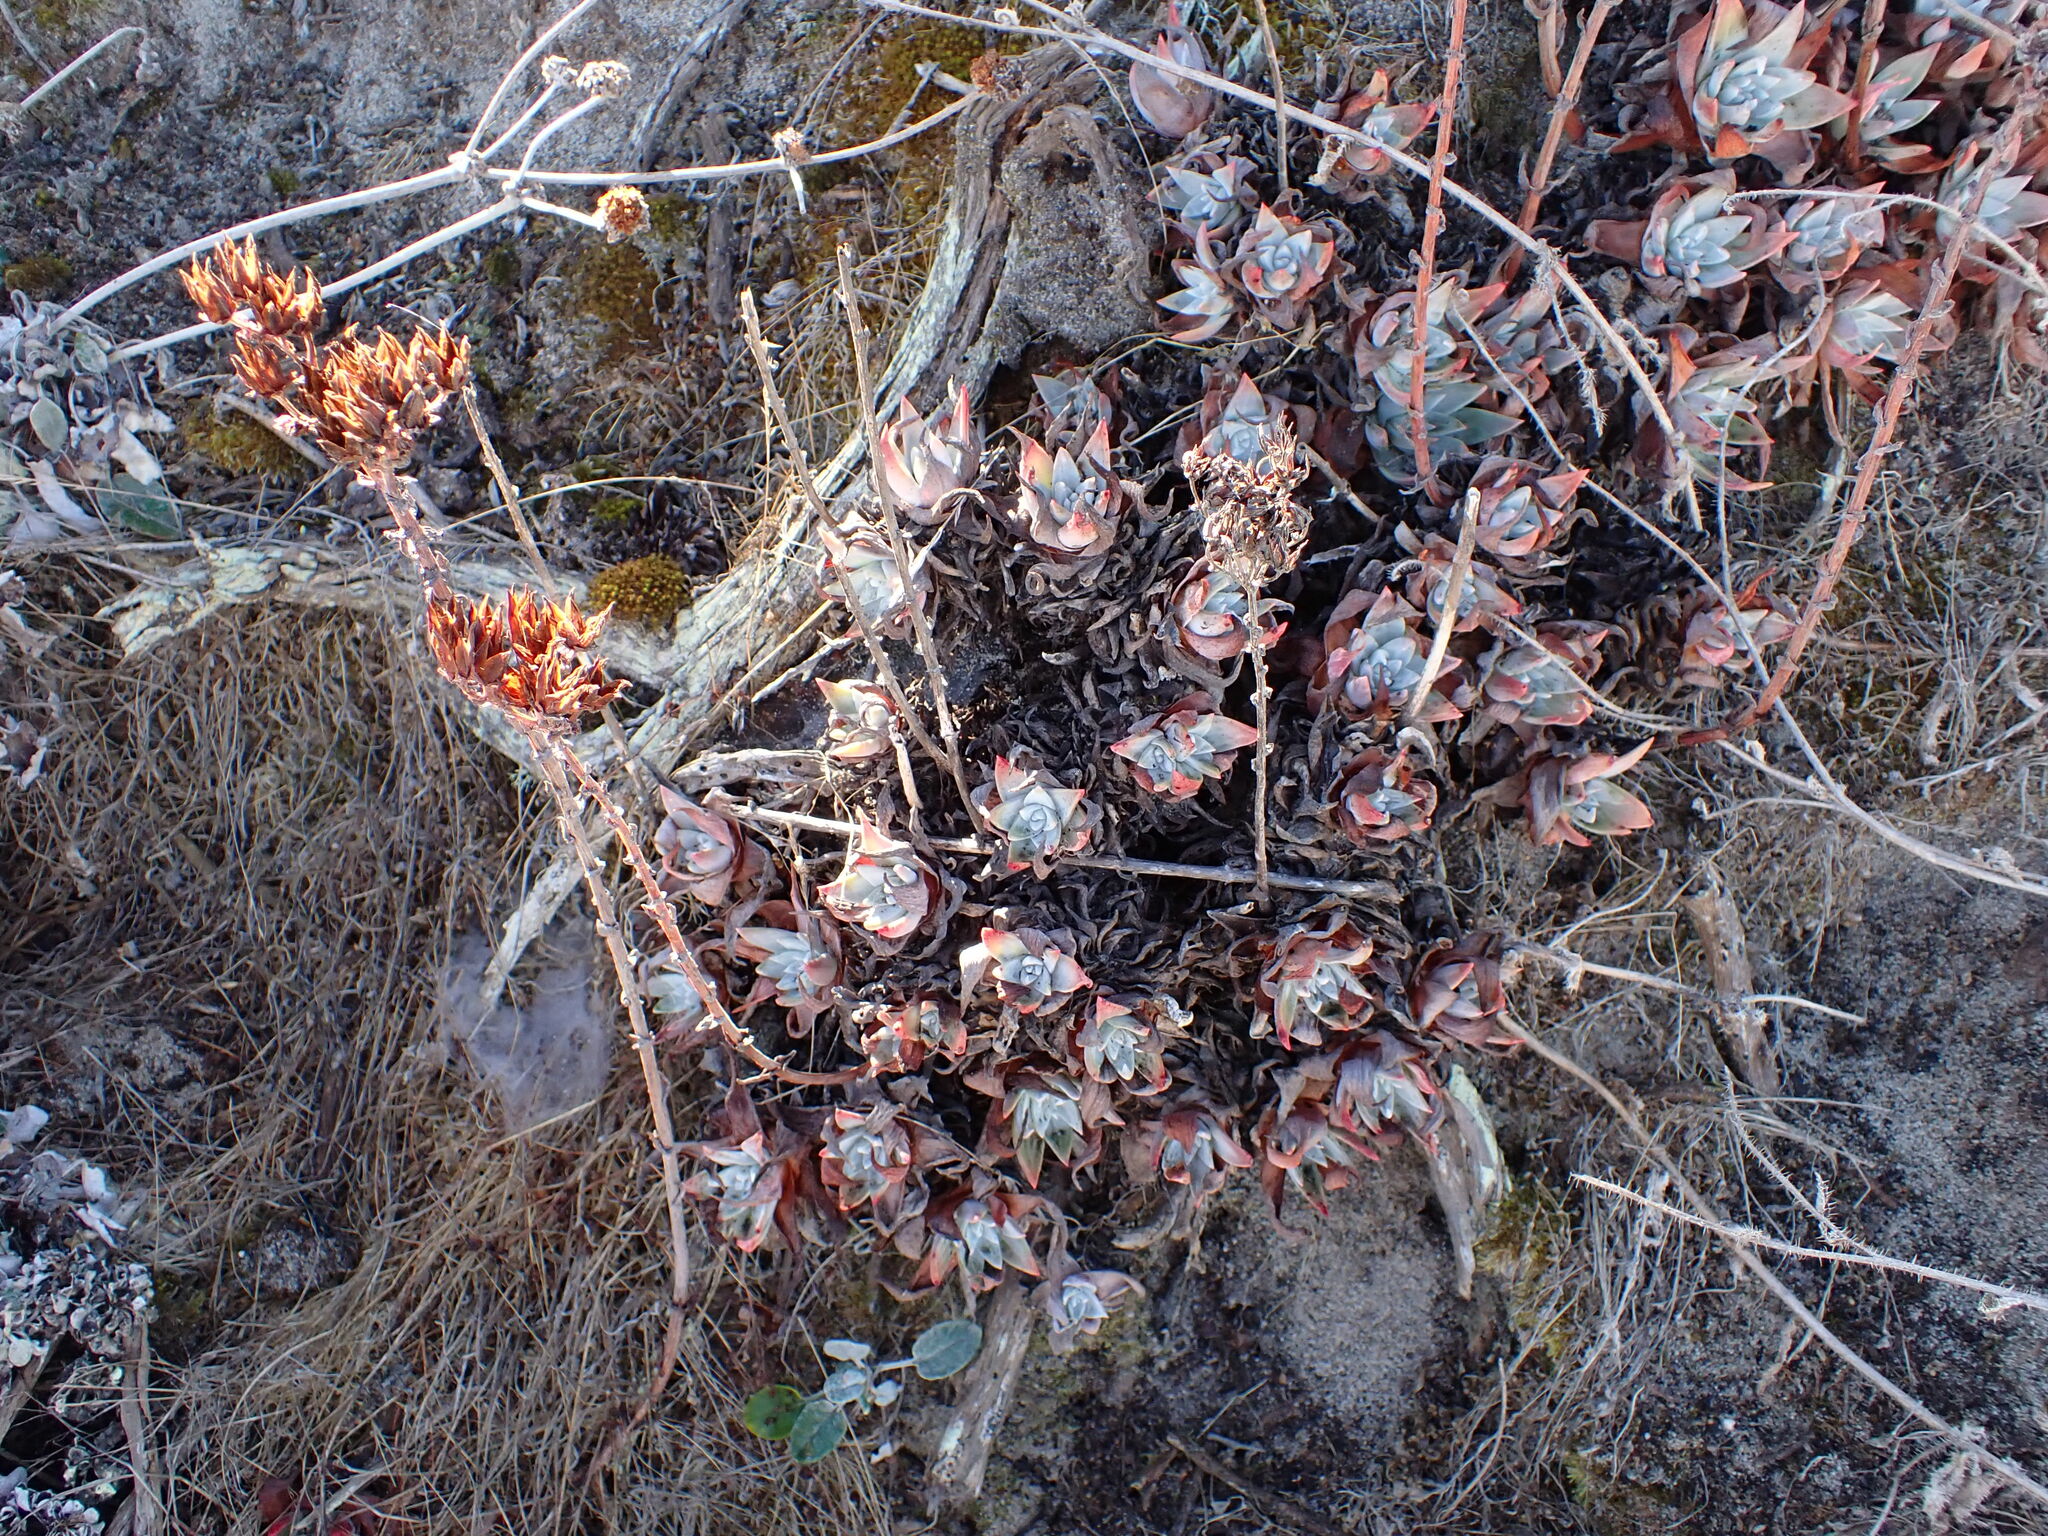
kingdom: Plantae
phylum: Tracheophyta
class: Magnoliopsida
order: Saxifragales
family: Crassulaceae
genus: Dudleya
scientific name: Dudleya caespitosa
